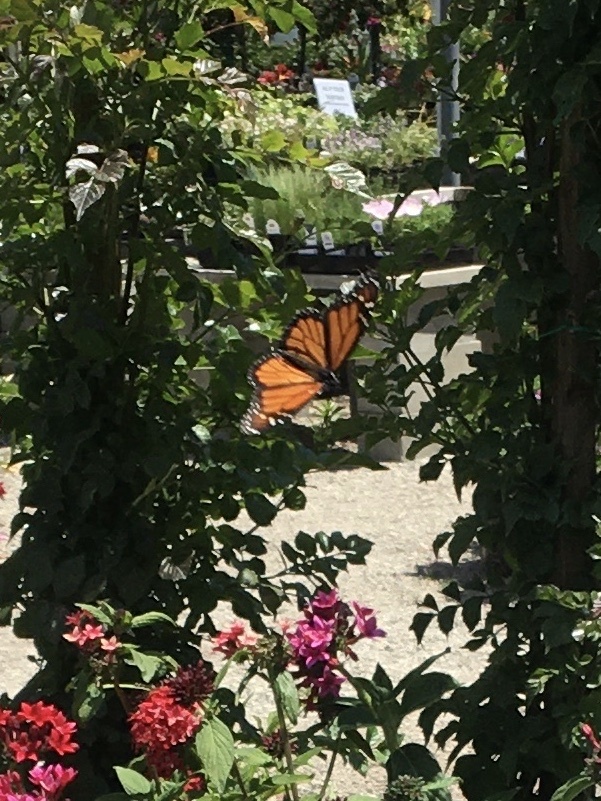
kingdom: Animalia
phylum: Arthropoda
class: Insecta
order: Lepidoptera
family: Nymphalidae
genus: Danaus
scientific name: Danaus plexippus
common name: Monarch
